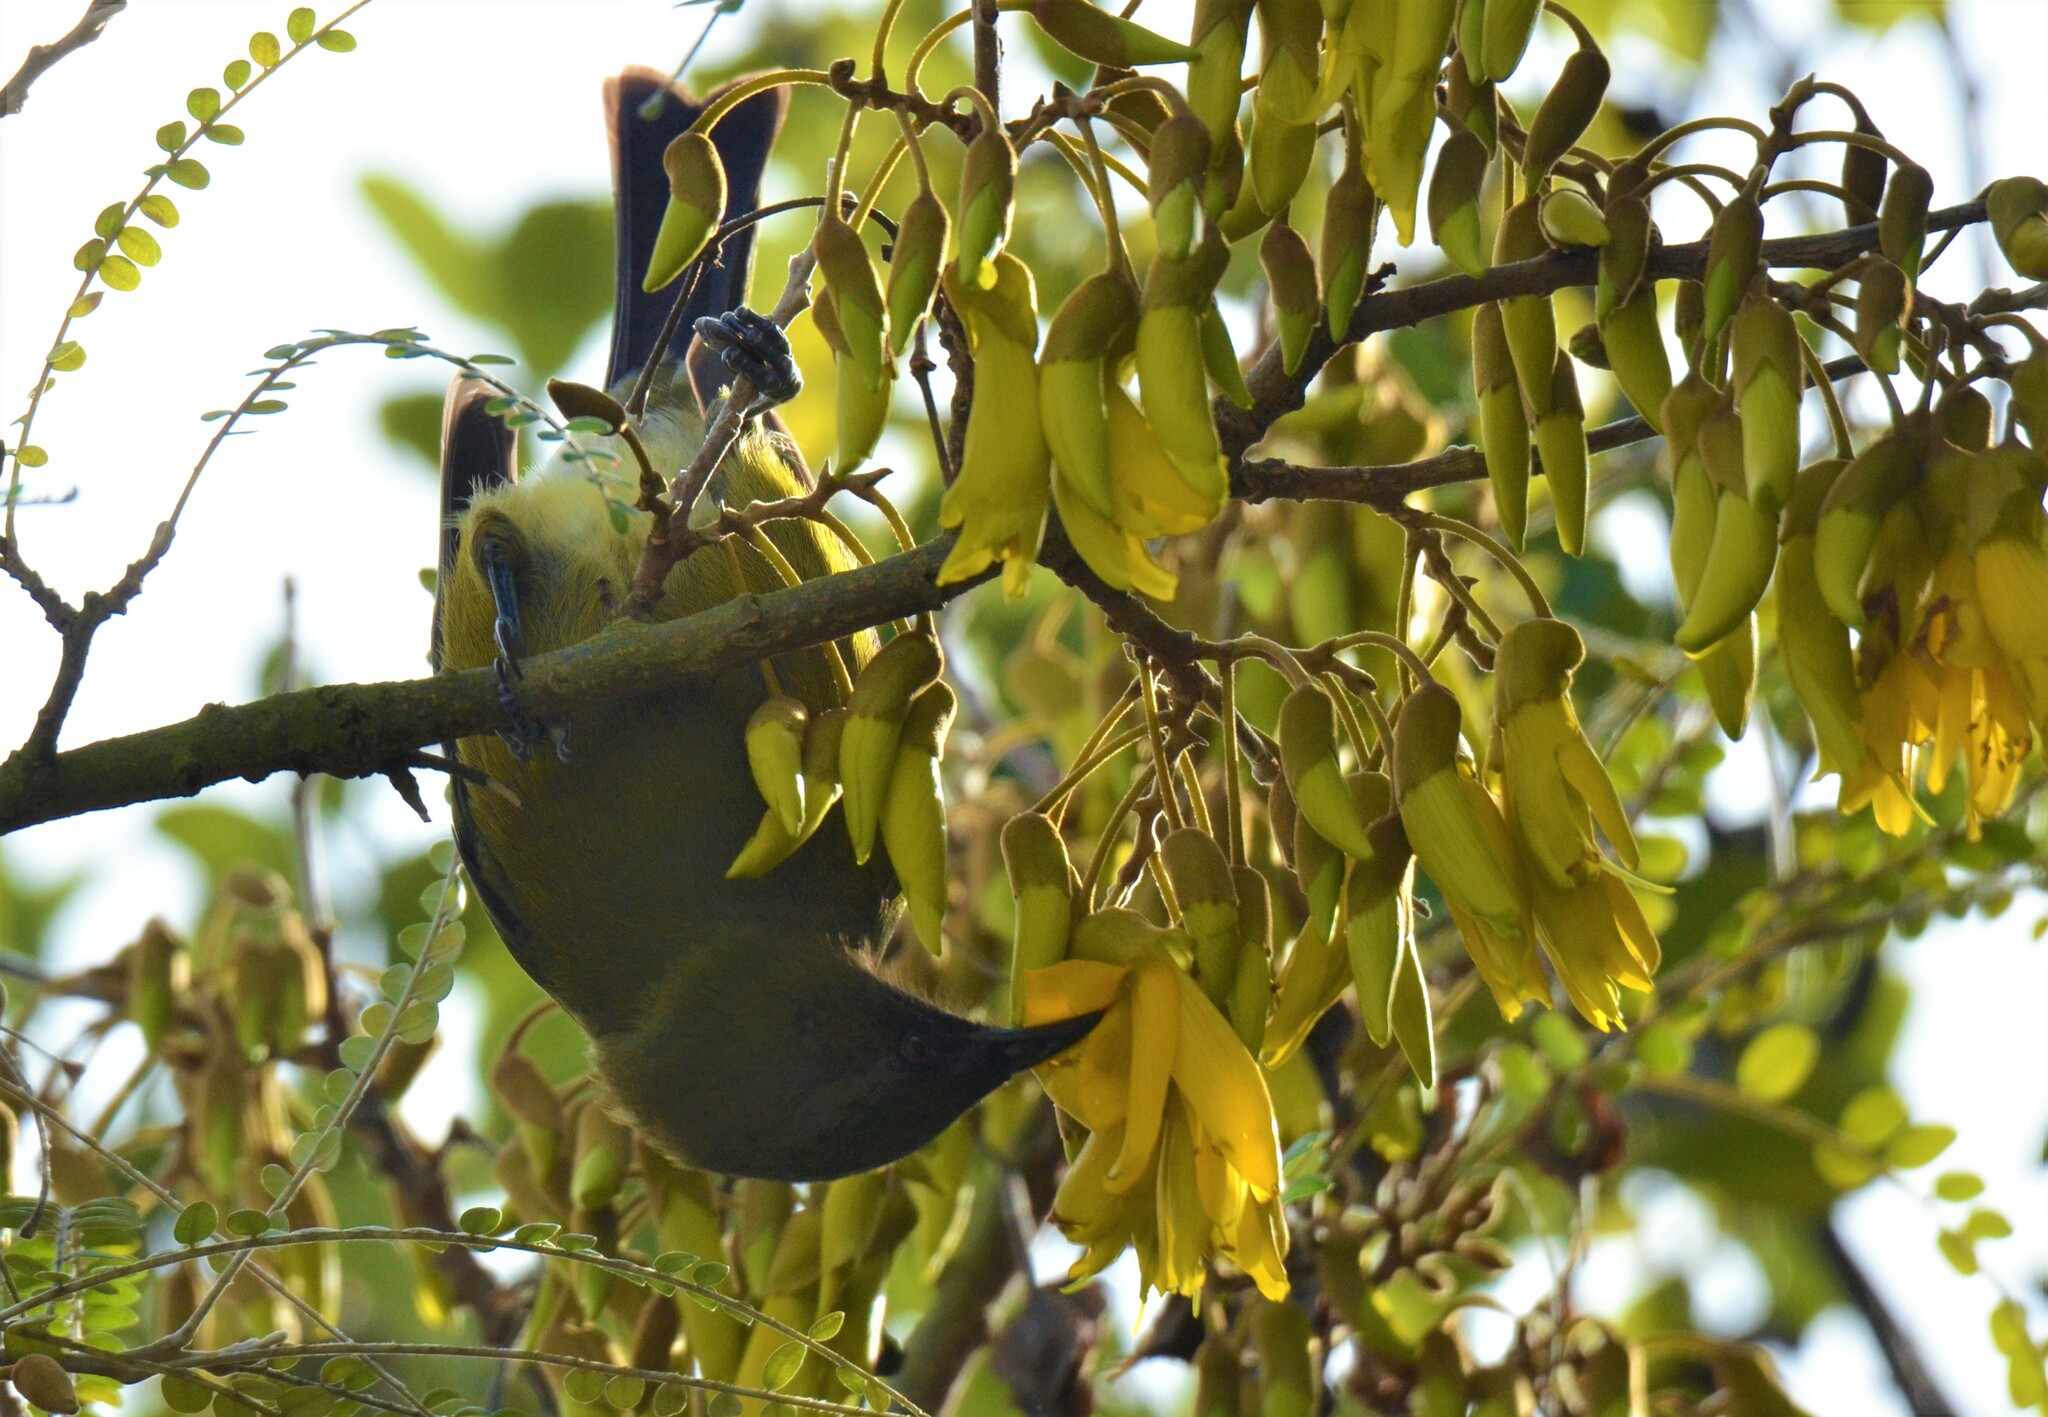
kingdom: Animalia
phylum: Chordata
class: Aves
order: Passeriformes
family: Meliphagidae
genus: Anthornis
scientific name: Anthornis melanura
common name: New zealand bellbird
